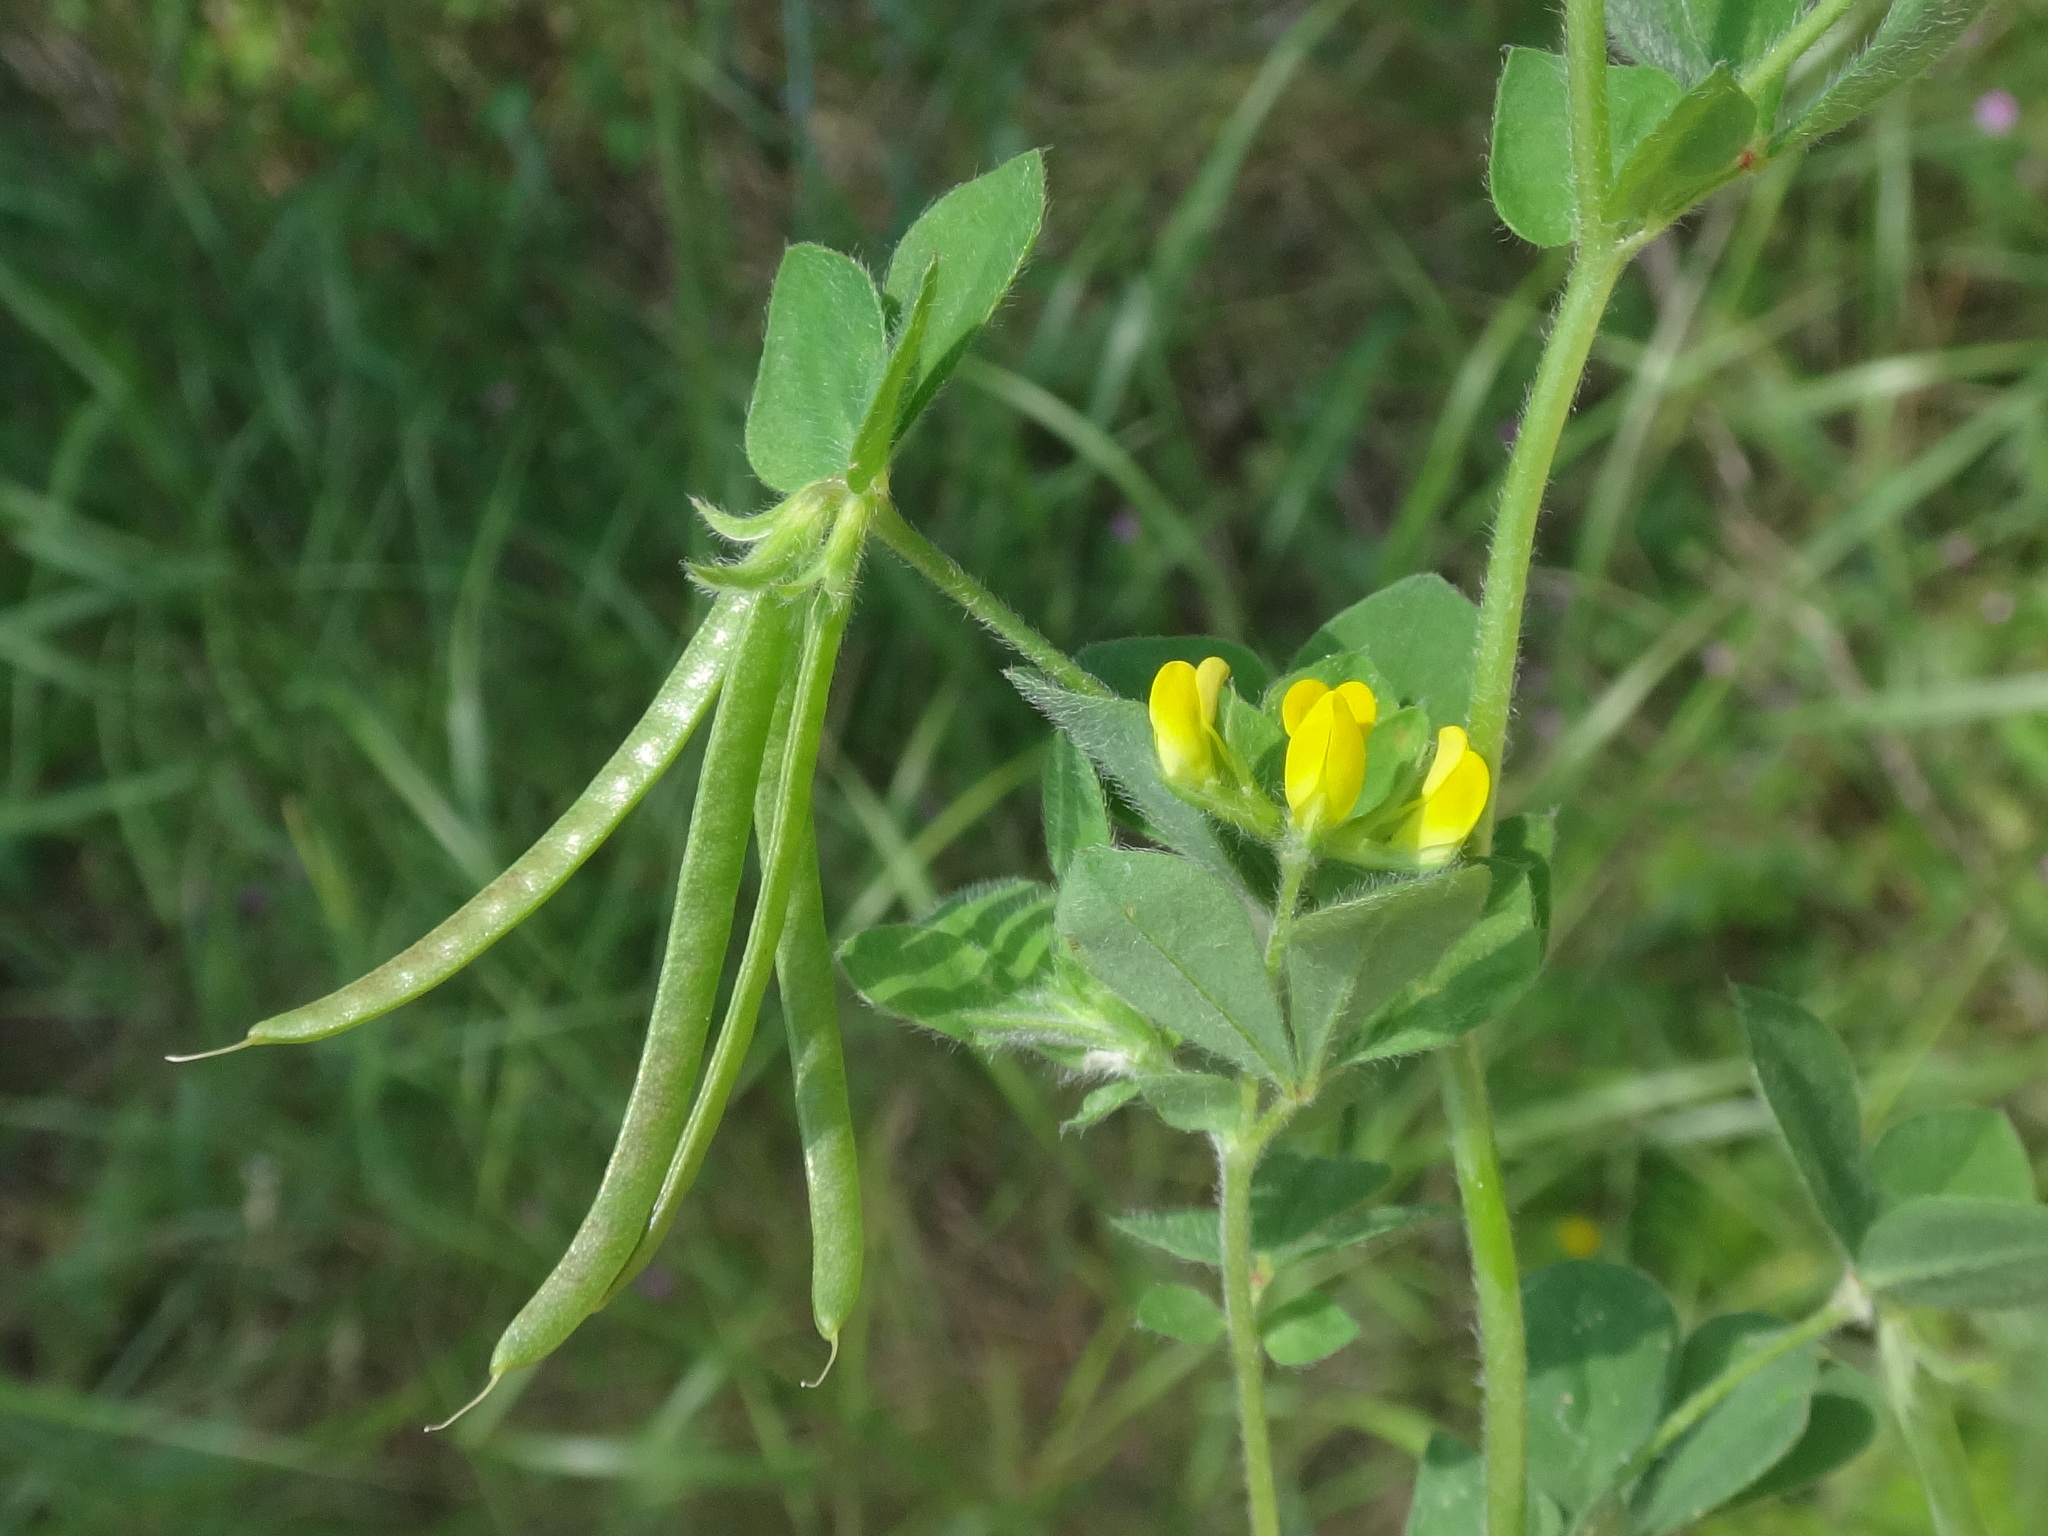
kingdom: Plantae
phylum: Tracheophyta
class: Magnoliopsida
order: Fabales
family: Fabaceae
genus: Lotus
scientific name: Lotus ornithopodioides
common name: Southern bird's-foot trefoil
